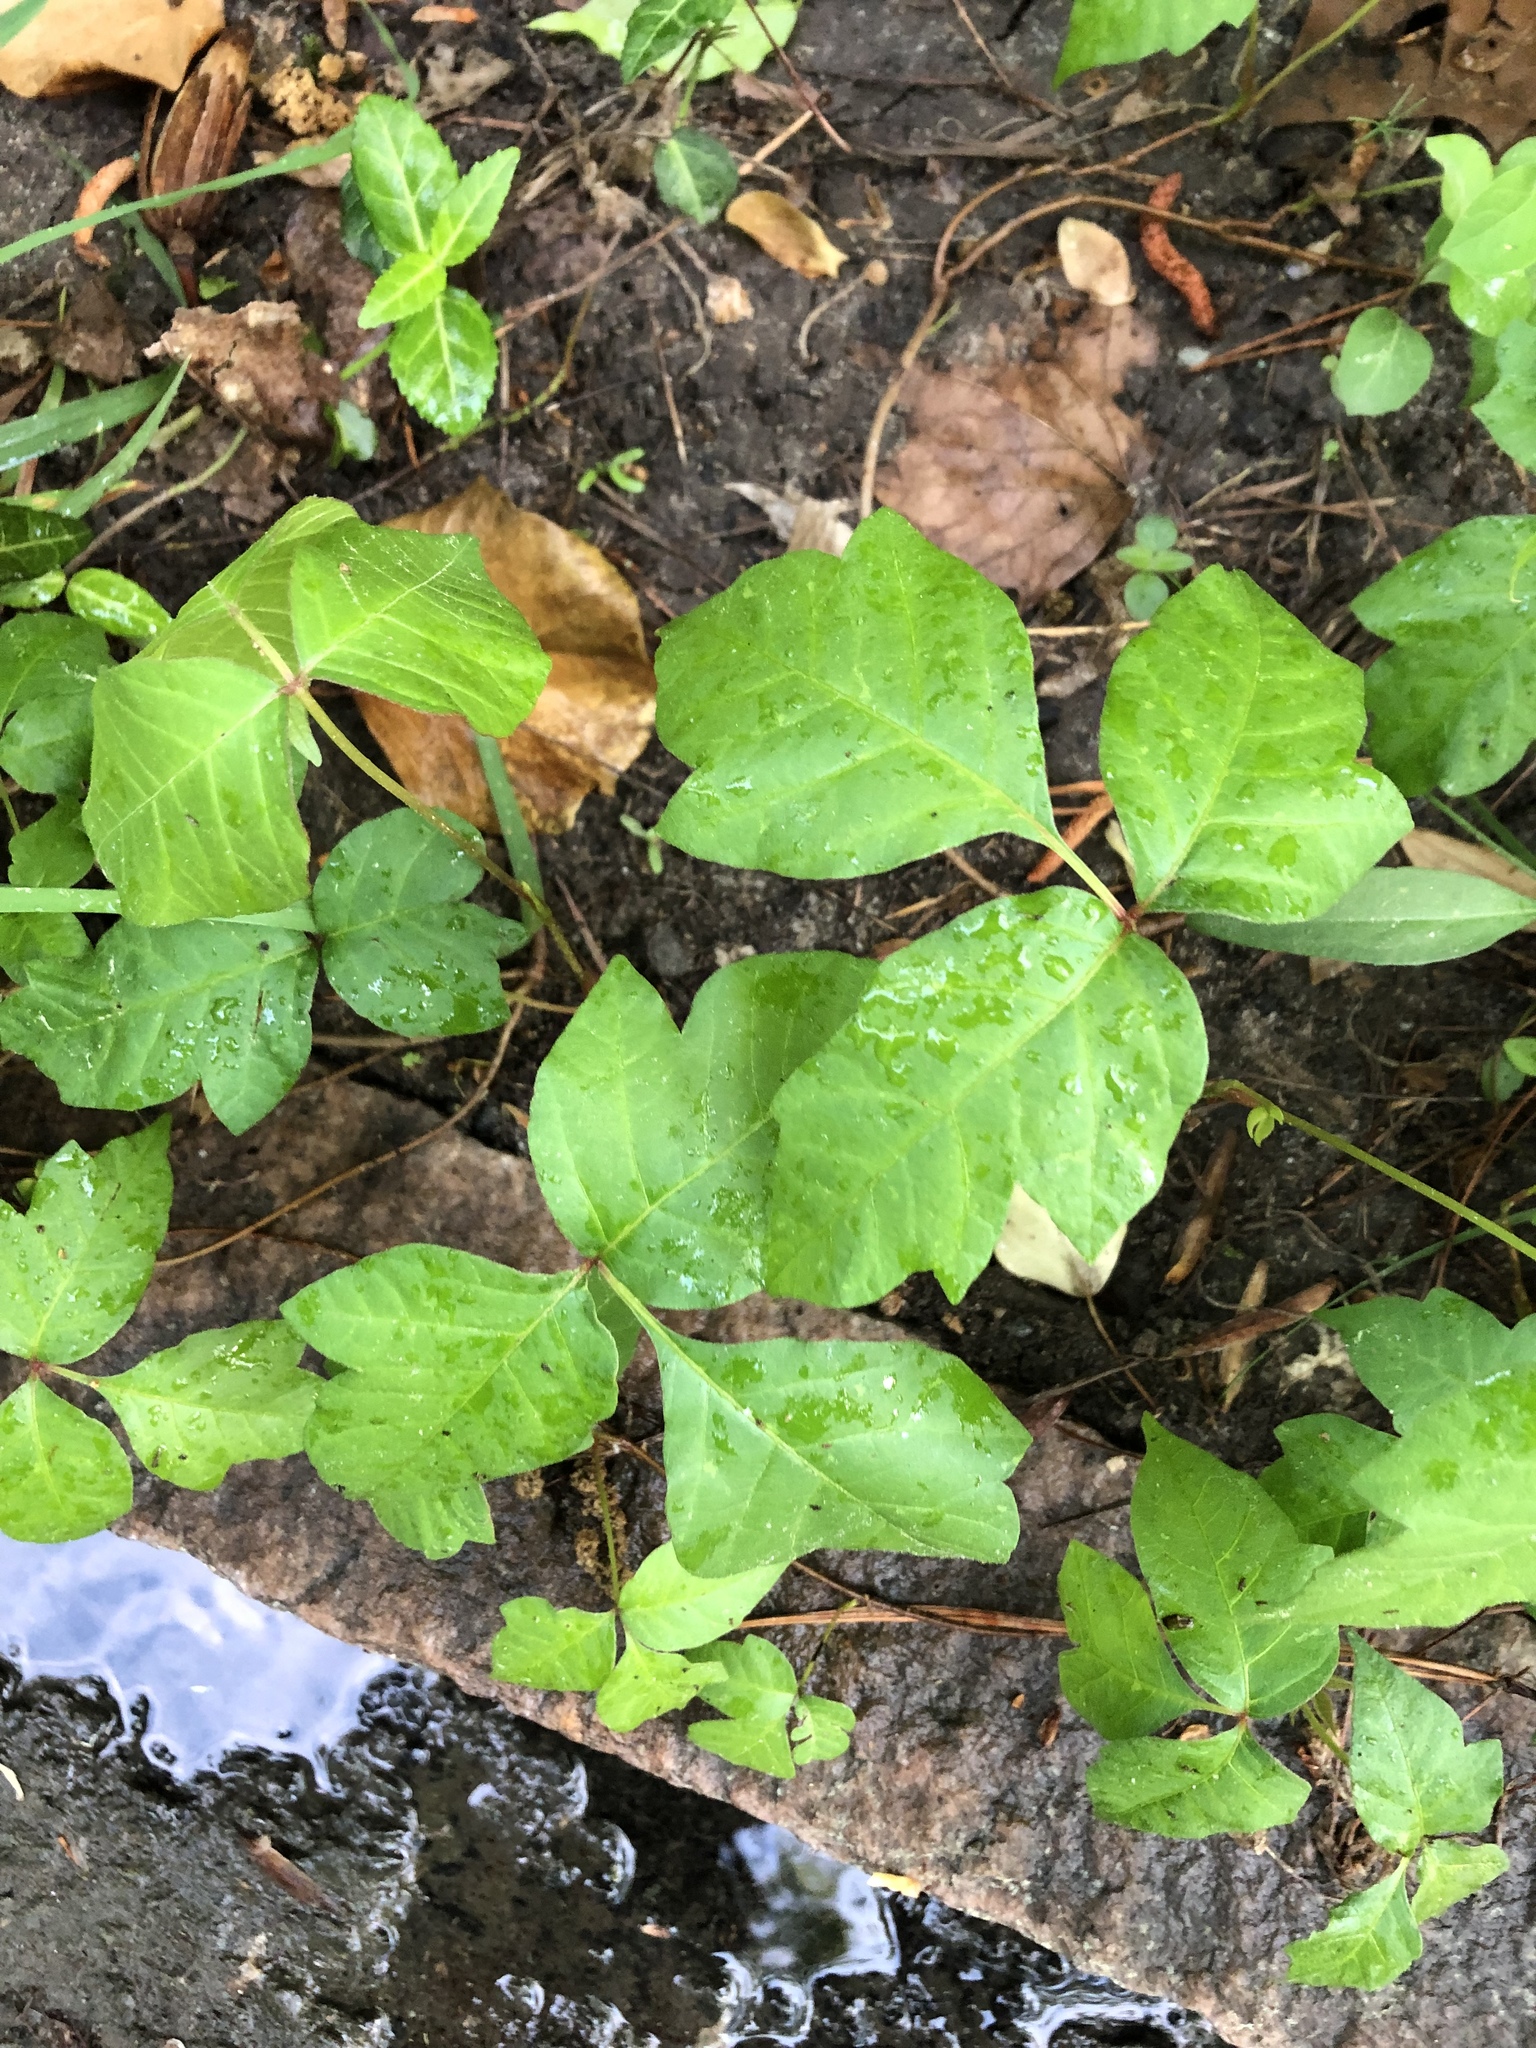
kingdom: Plantae
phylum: Tracheophyta
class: Magnoliopsida
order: Sapindales
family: Anacardiaceae
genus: Toxicodendron
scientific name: Toxicodendron radicans
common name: Poison ivy
